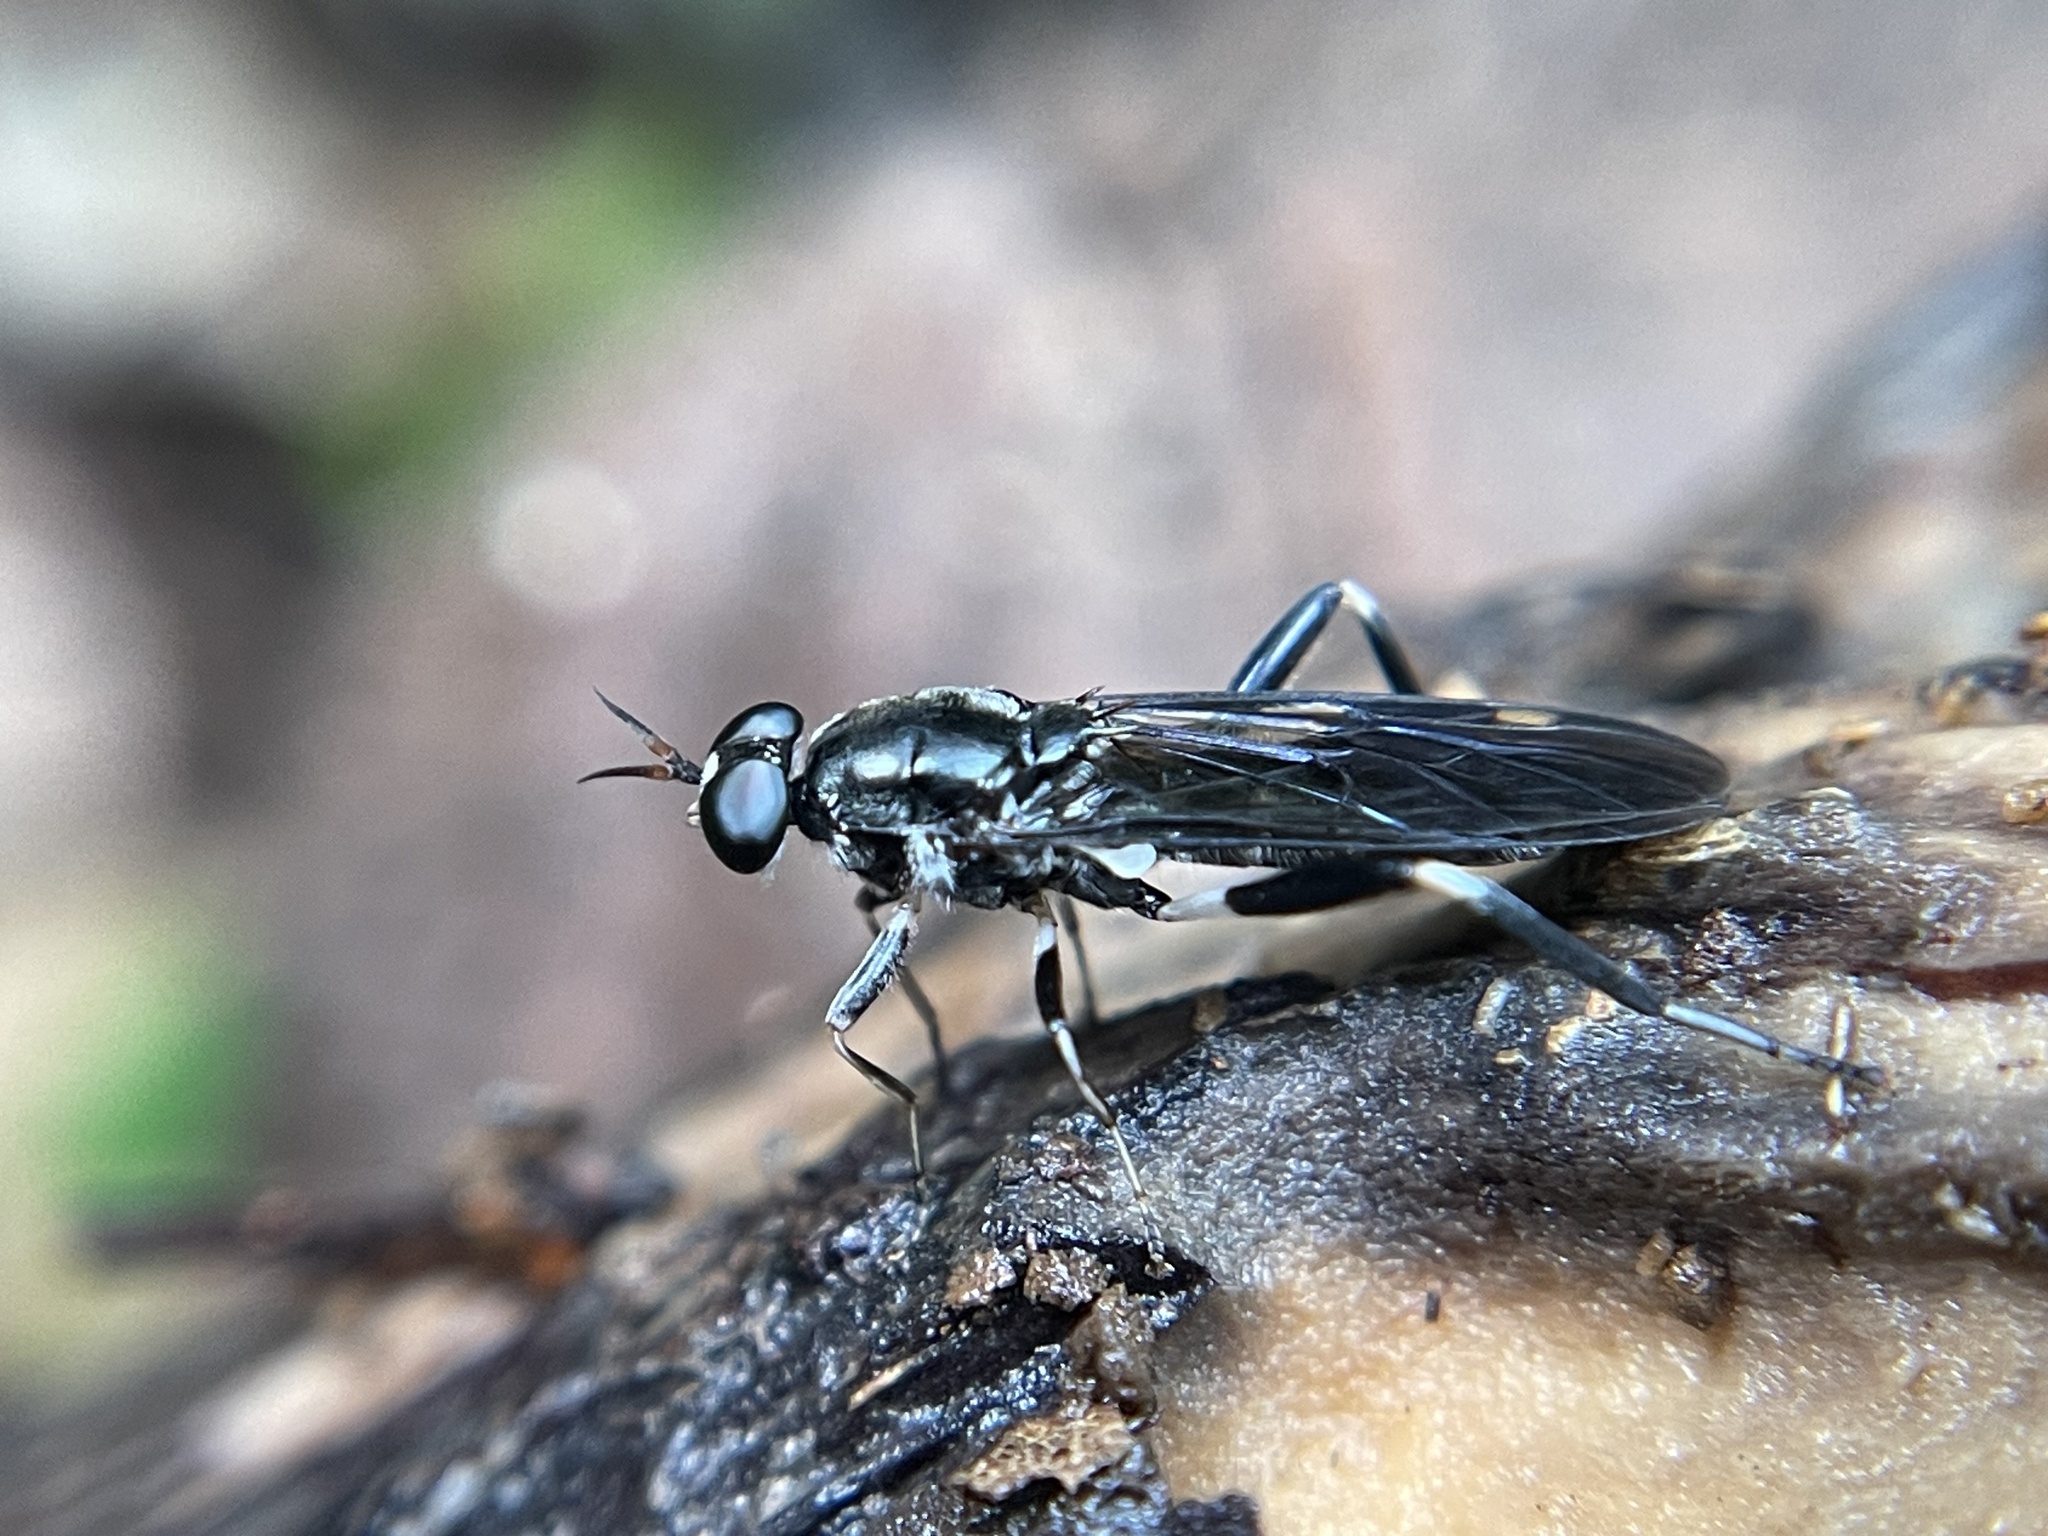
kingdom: Animalia
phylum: Arthropoda
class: Insecta
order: Diptera
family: Stratiomyidae
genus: Exaireta
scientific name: Exaireta spinigera
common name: Blue soldier fly
